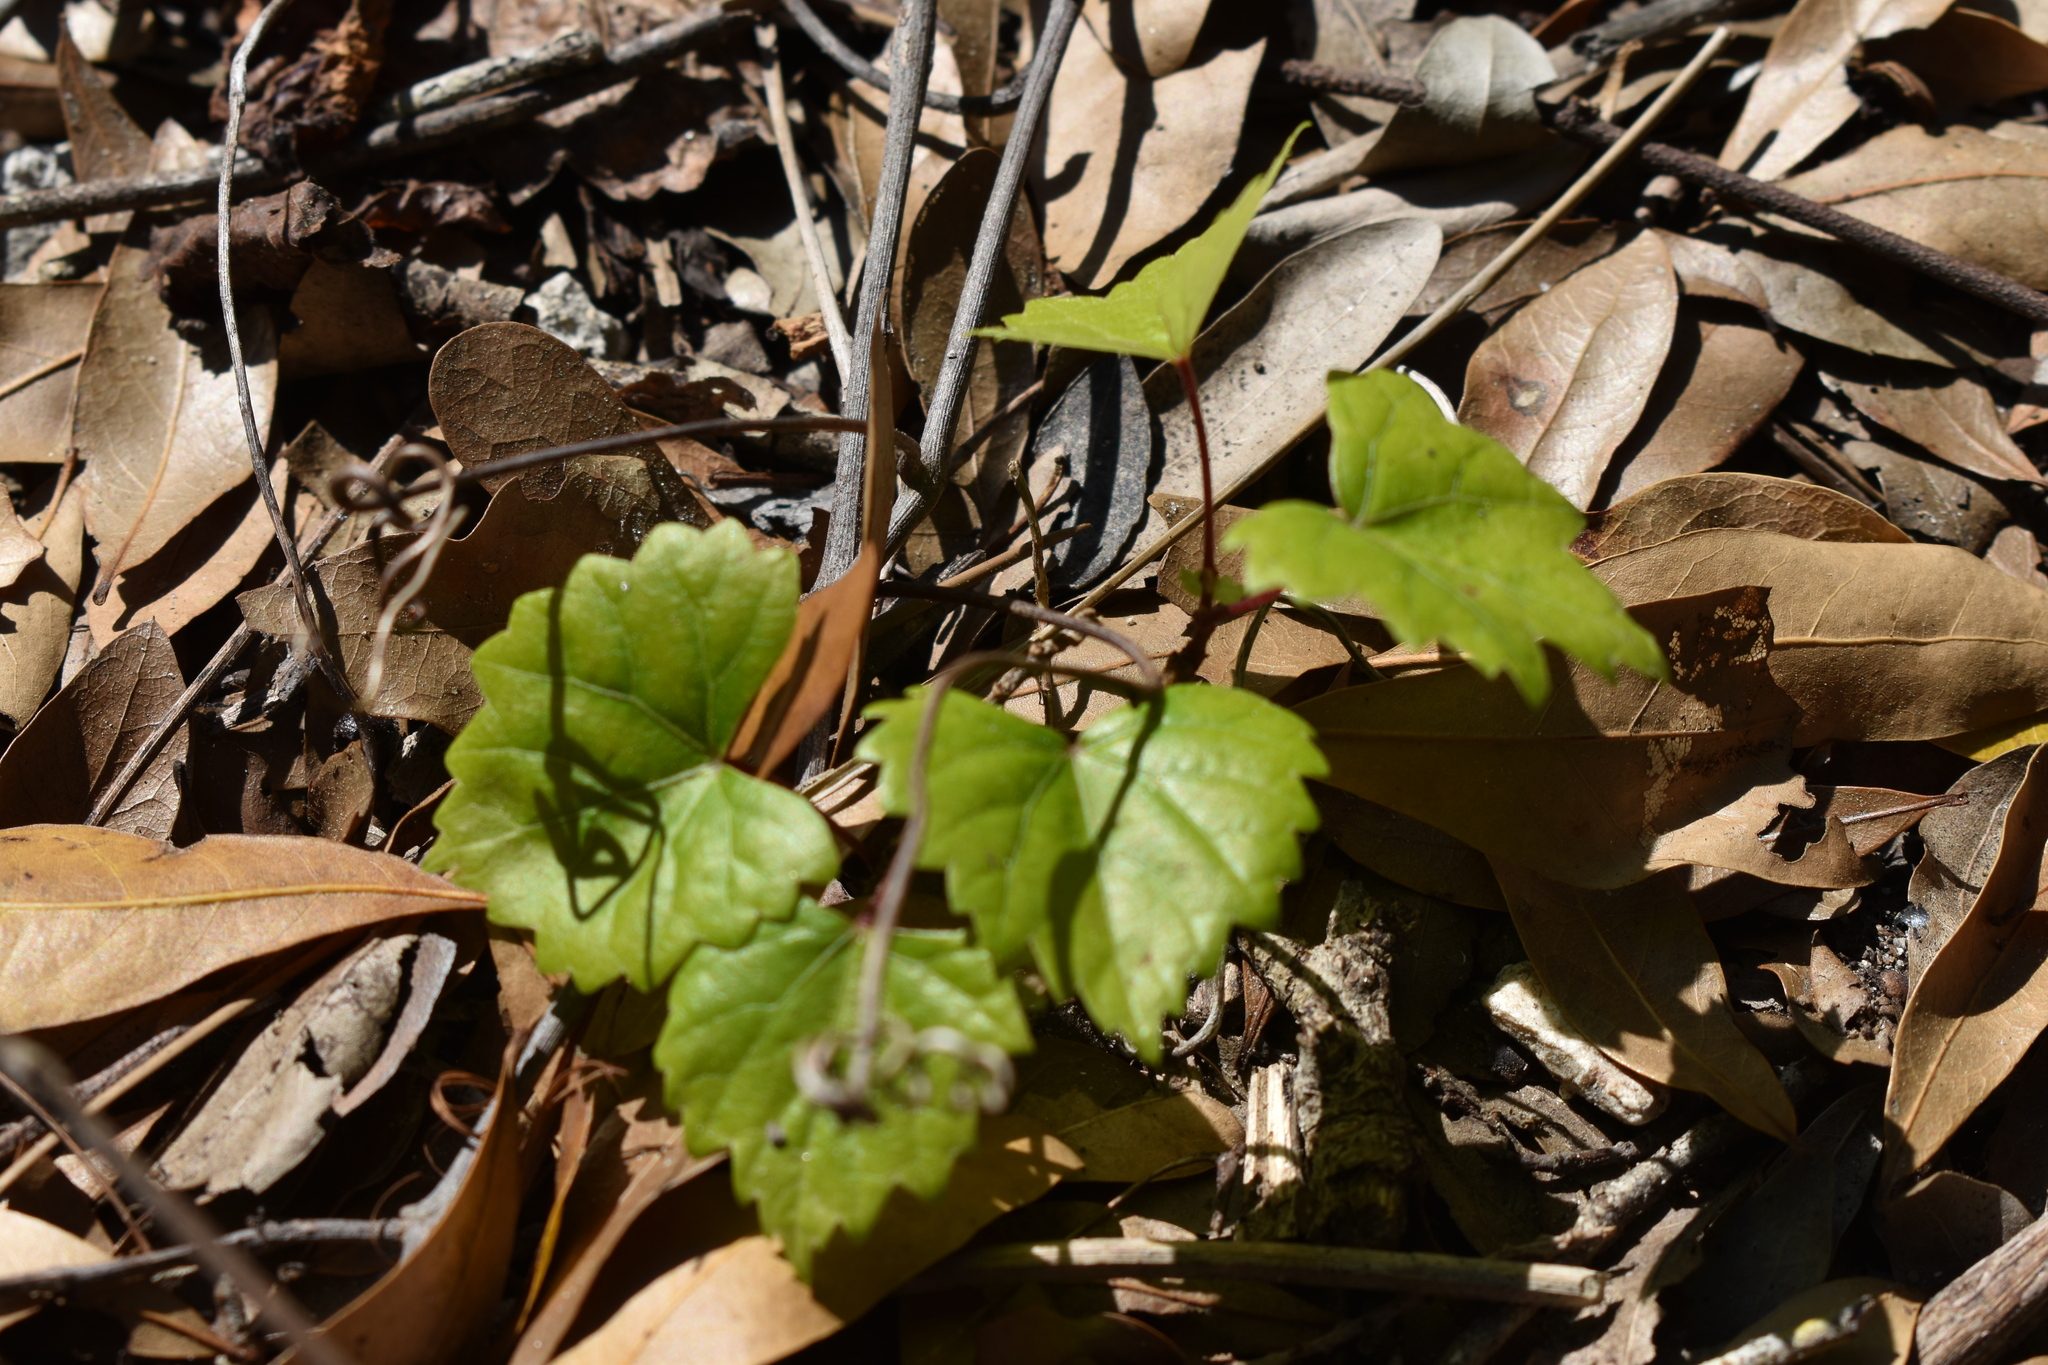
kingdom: Plantae
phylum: Tracheophyta
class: Magnoliopsida
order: Vitales
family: Vitaceae
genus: Vitis
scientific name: Vitis rotundifolia
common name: Muscadine grape
